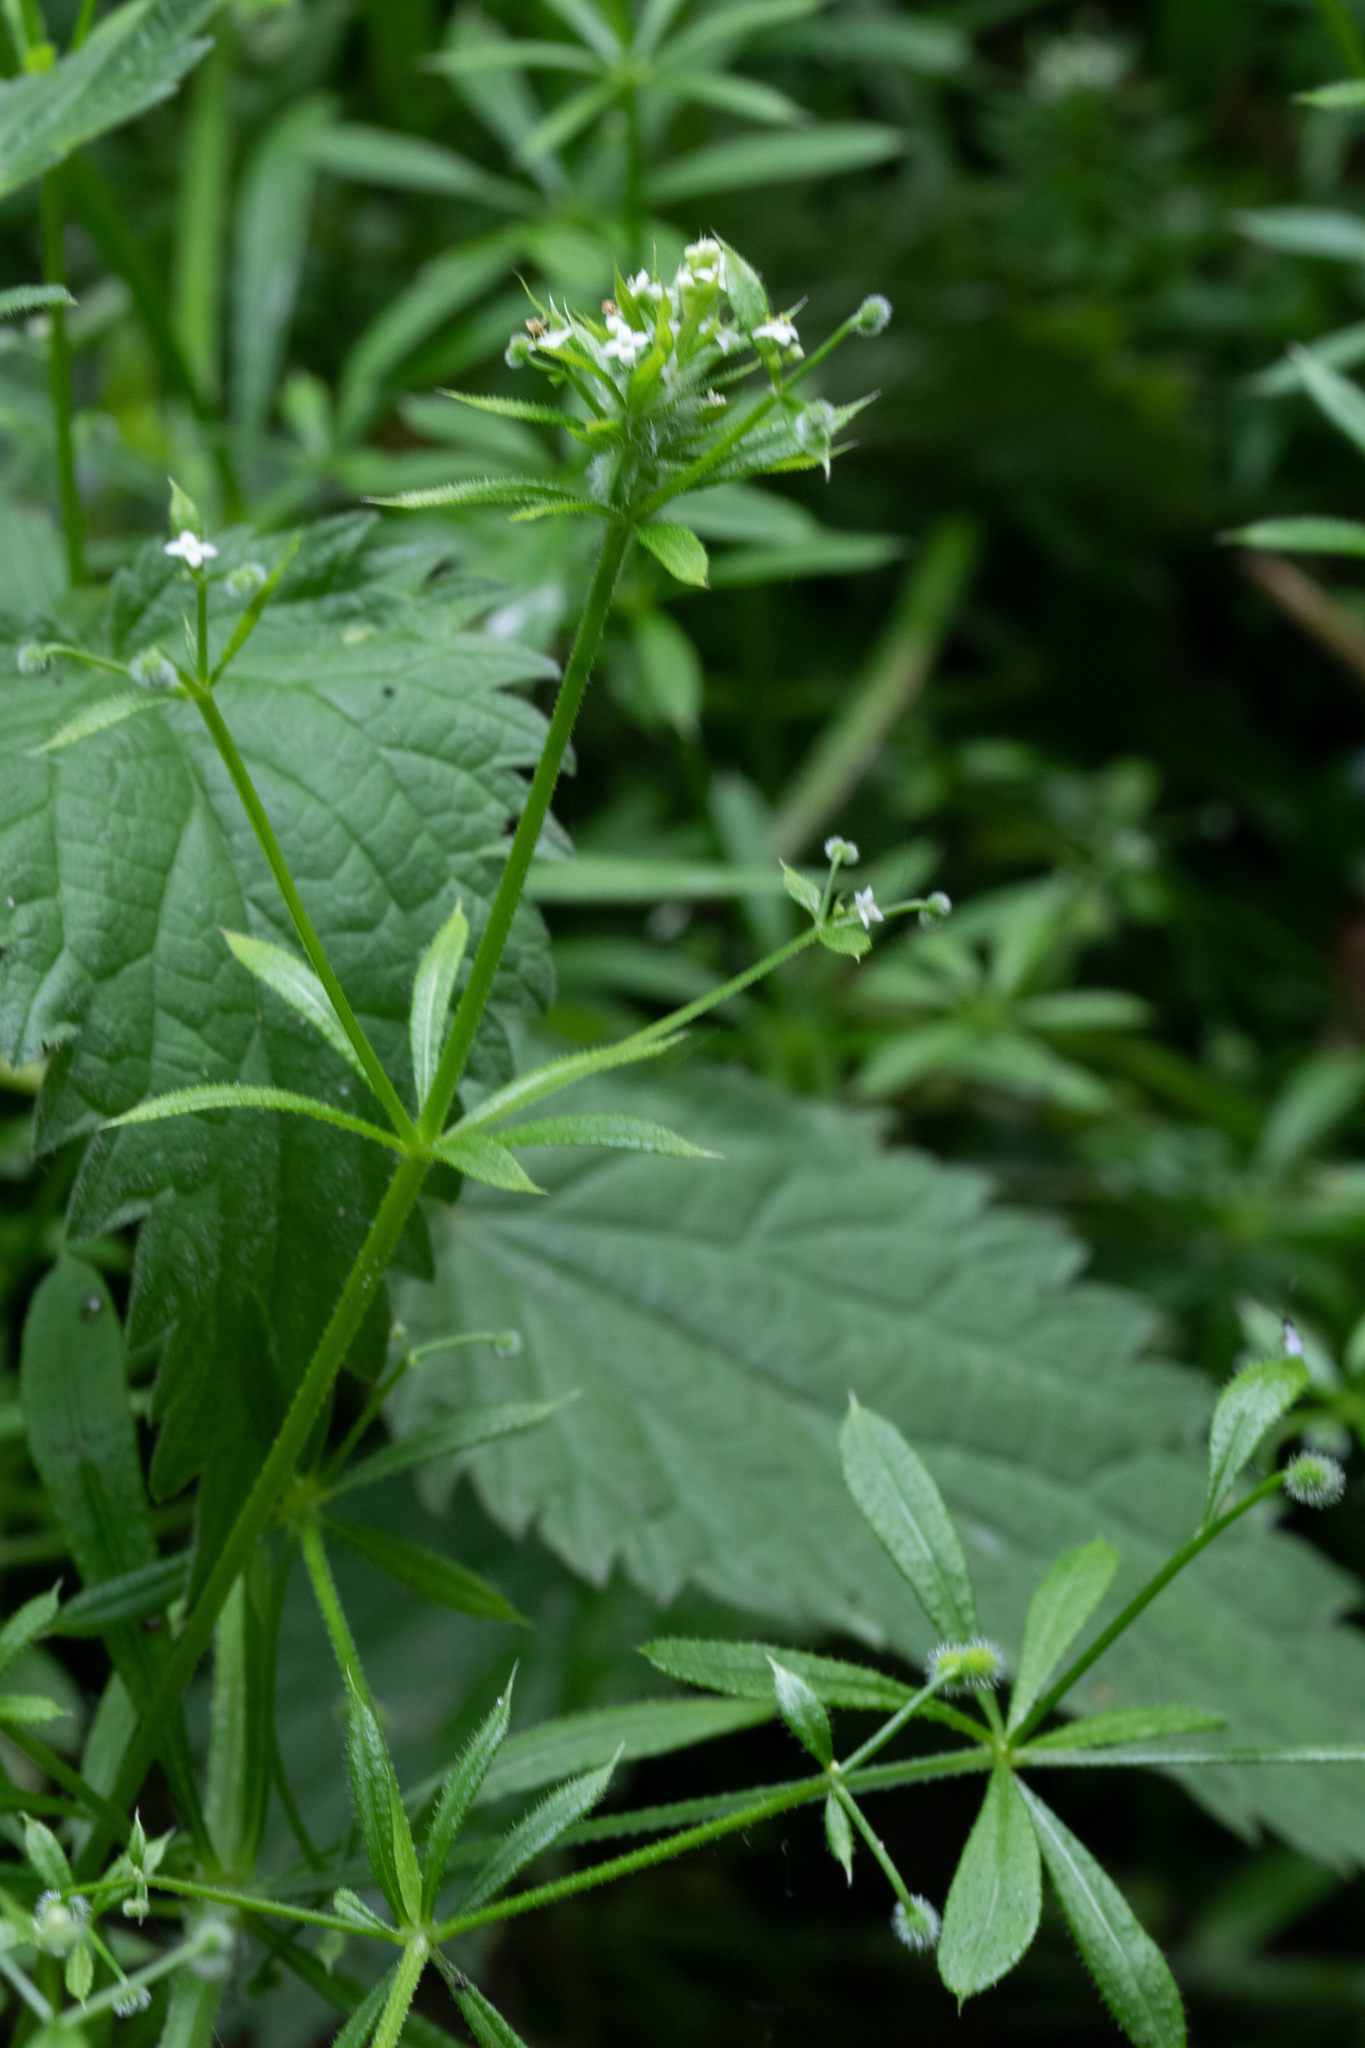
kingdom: Plantae
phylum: Tracheophyta
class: Magnoliopsida
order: Gentianales
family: Rubiaceae
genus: Galium
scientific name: Galium aparine
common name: Cleavers
